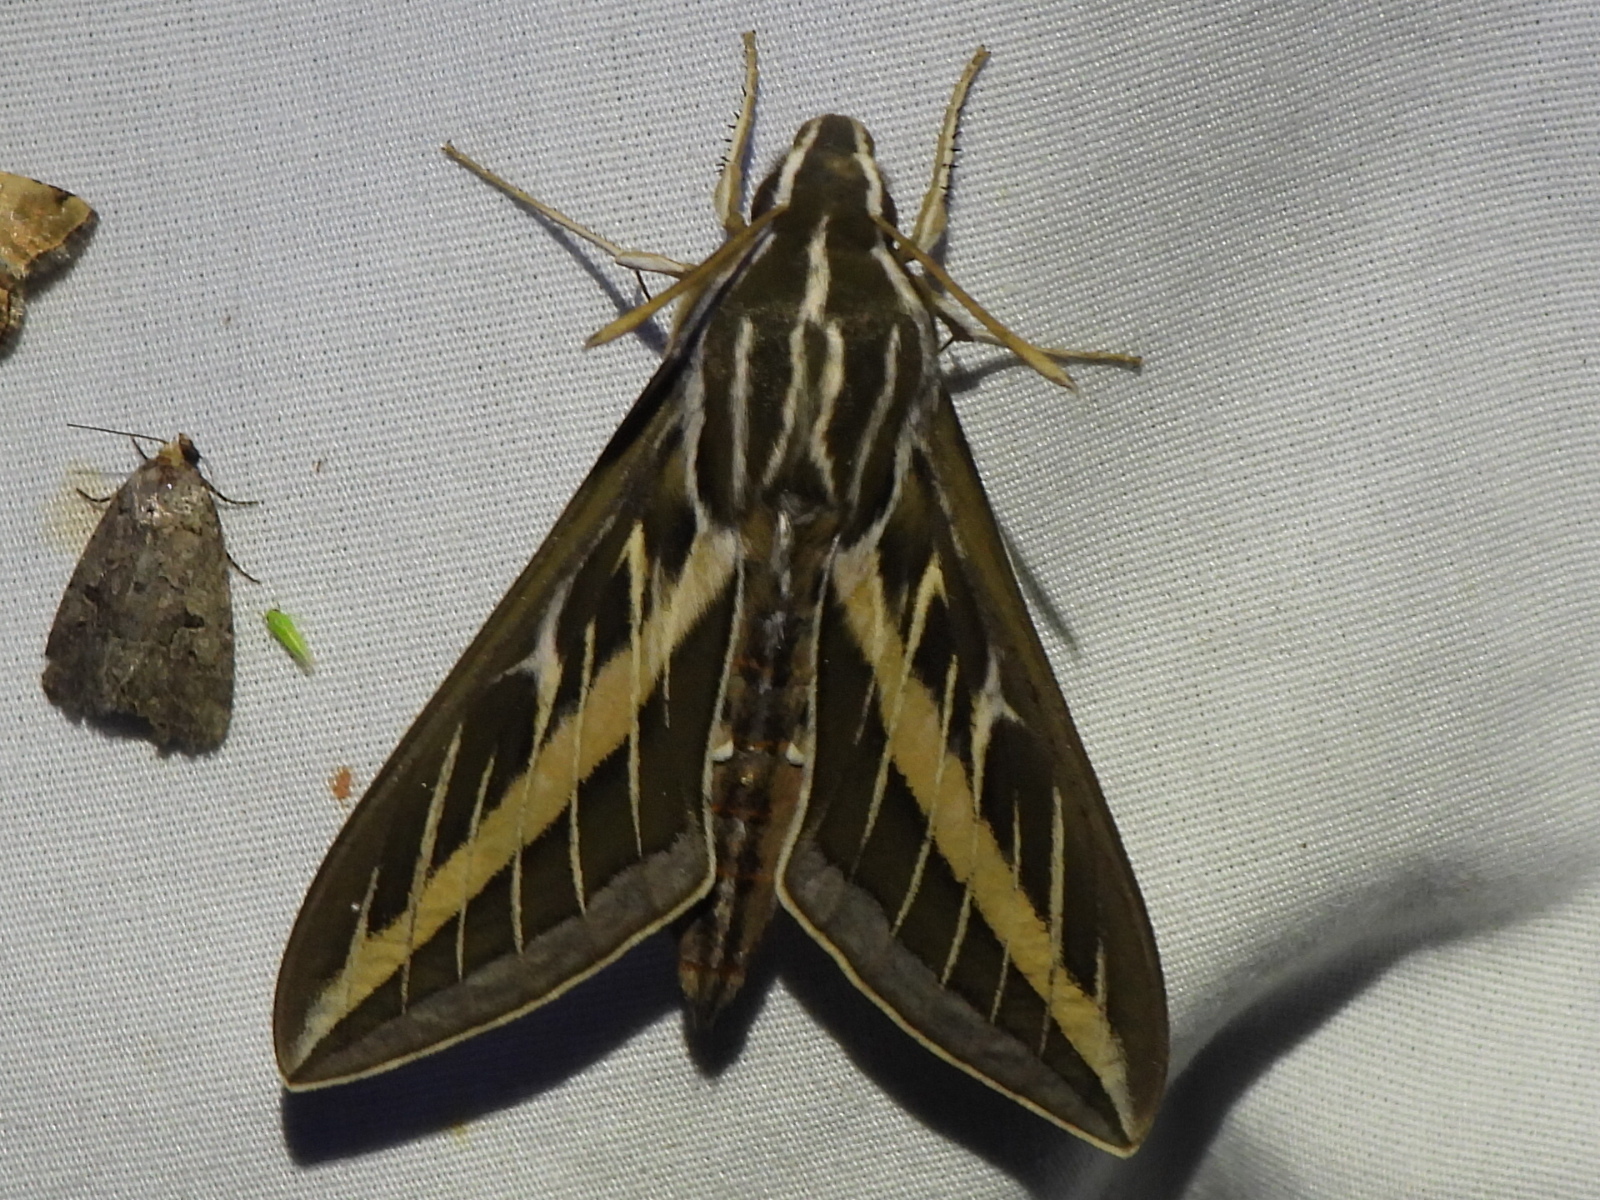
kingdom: Animalia
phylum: Arthropoda
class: Insecta
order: Lepidoptera
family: Sphingidae
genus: Hyles
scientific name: Hyles lineata
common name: White-lined sphinx
